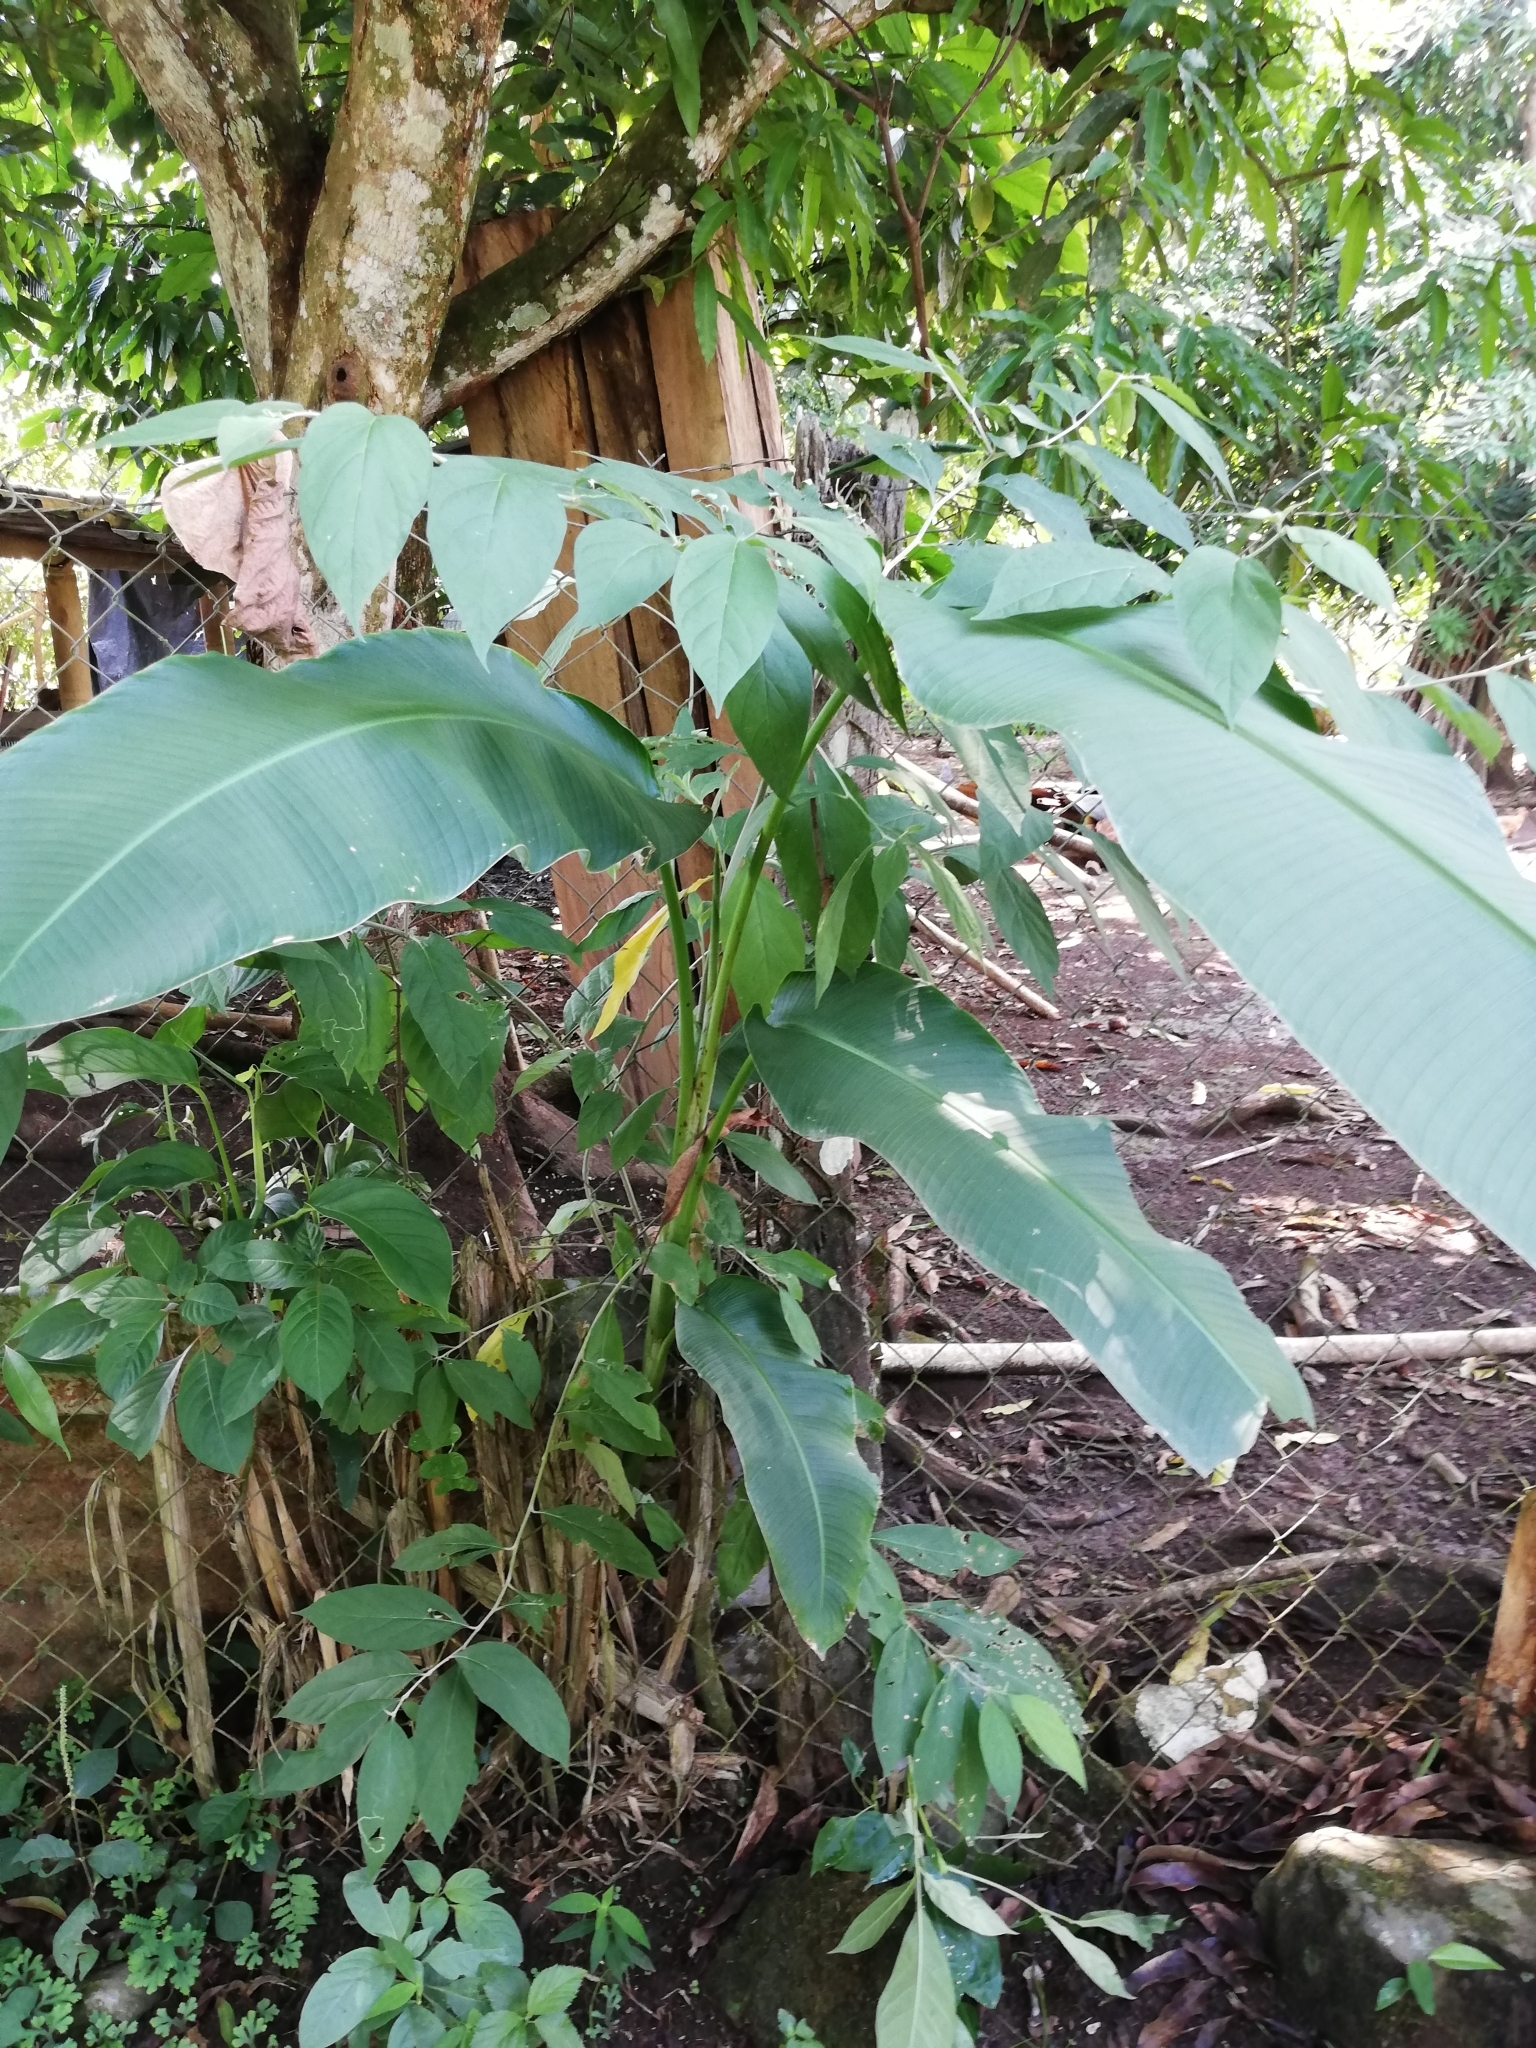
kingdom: Plantae
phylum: Tracheophyta
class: Liliopsida
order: Zingiberales
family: Heliconiaceae
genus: Heliconia
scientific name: Heliconia rostrata
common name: False bird of paradise
